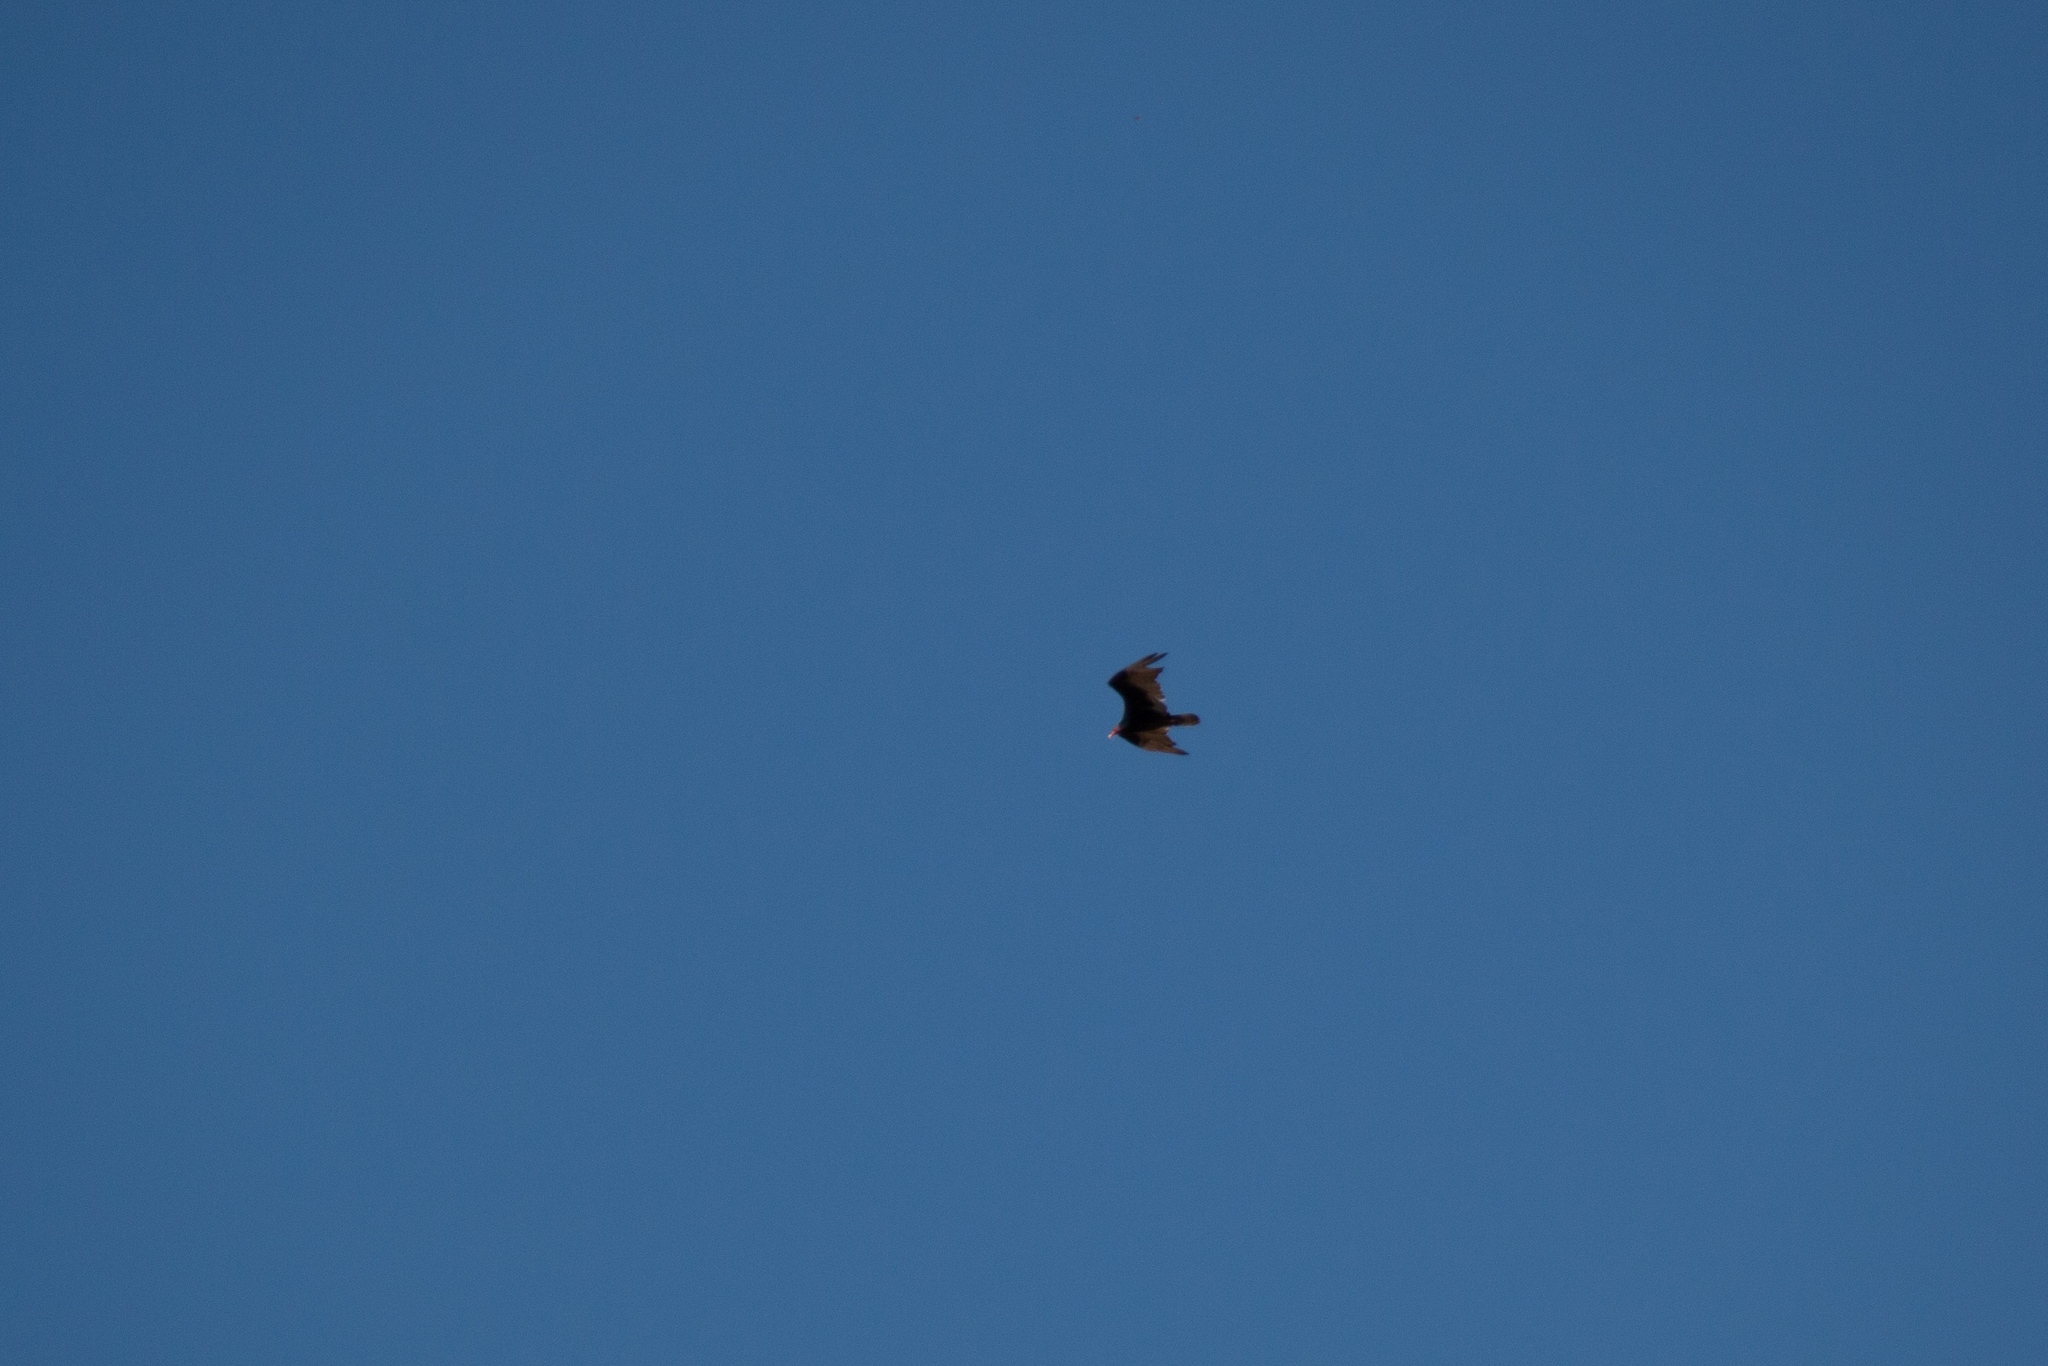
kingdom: Animalia
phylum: Chordata
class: Aves
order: Accipitriformes
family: Cathartidae
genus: Cathartes
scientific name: Cathartes aura
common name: Turkey vulture
